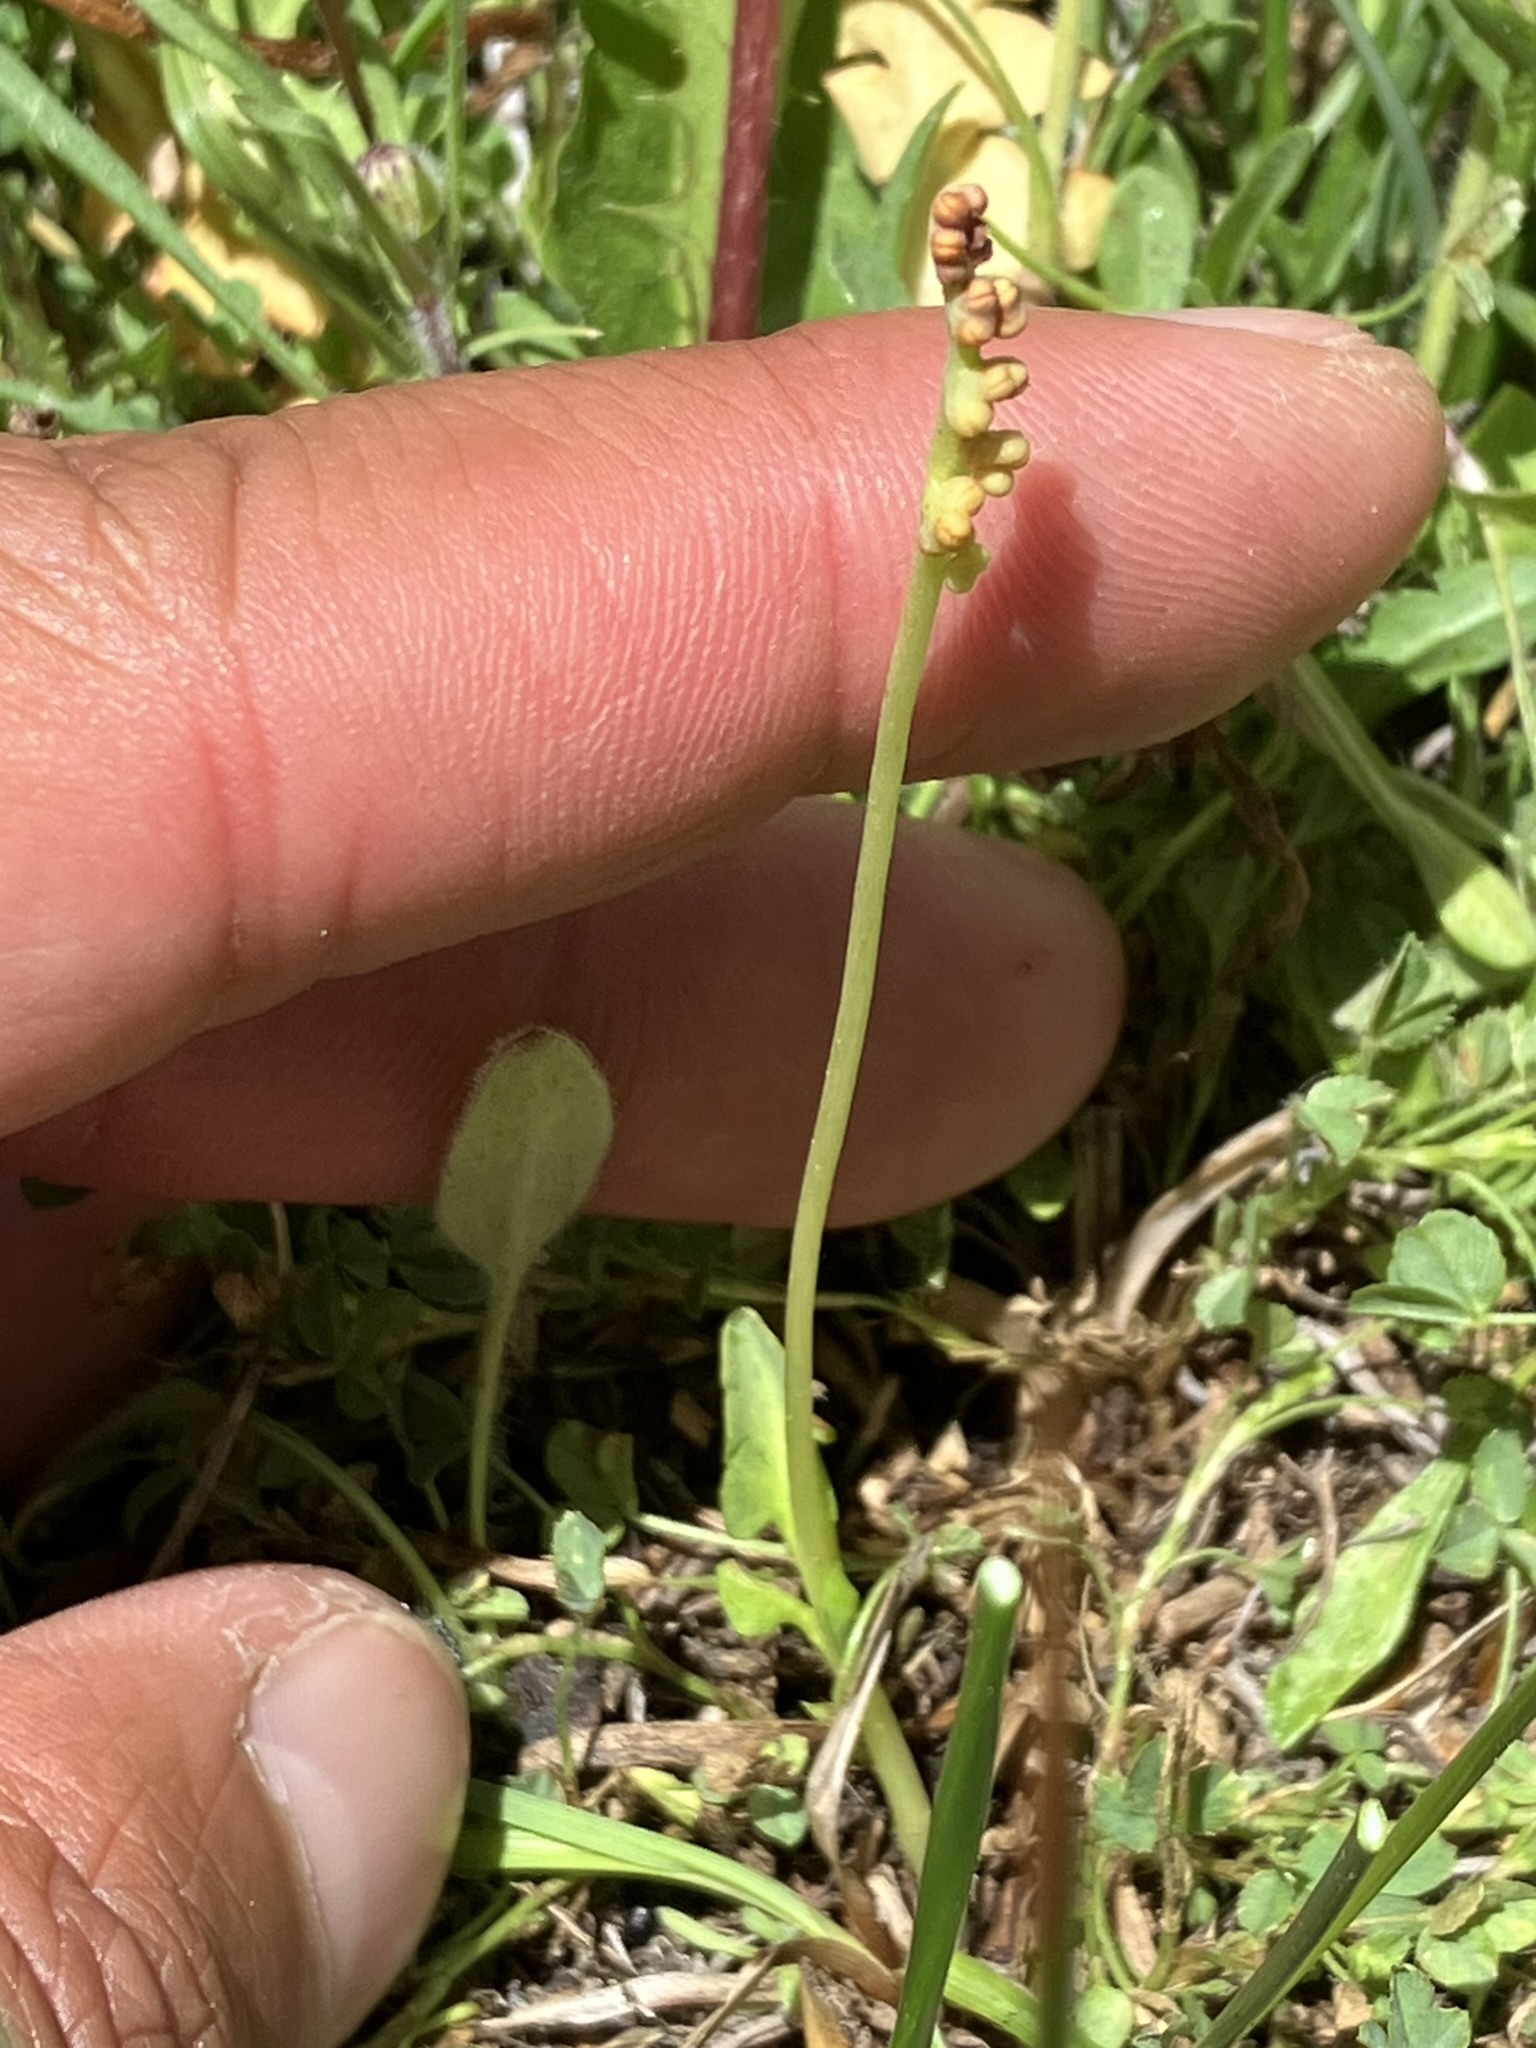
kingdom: Plantae
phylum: Tracheophyta
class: Polypodiopsida
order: Ophioglossales
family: Ophioglossaceae
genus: Botrychium
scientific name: Botrychium simplex
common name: Least moonwort
